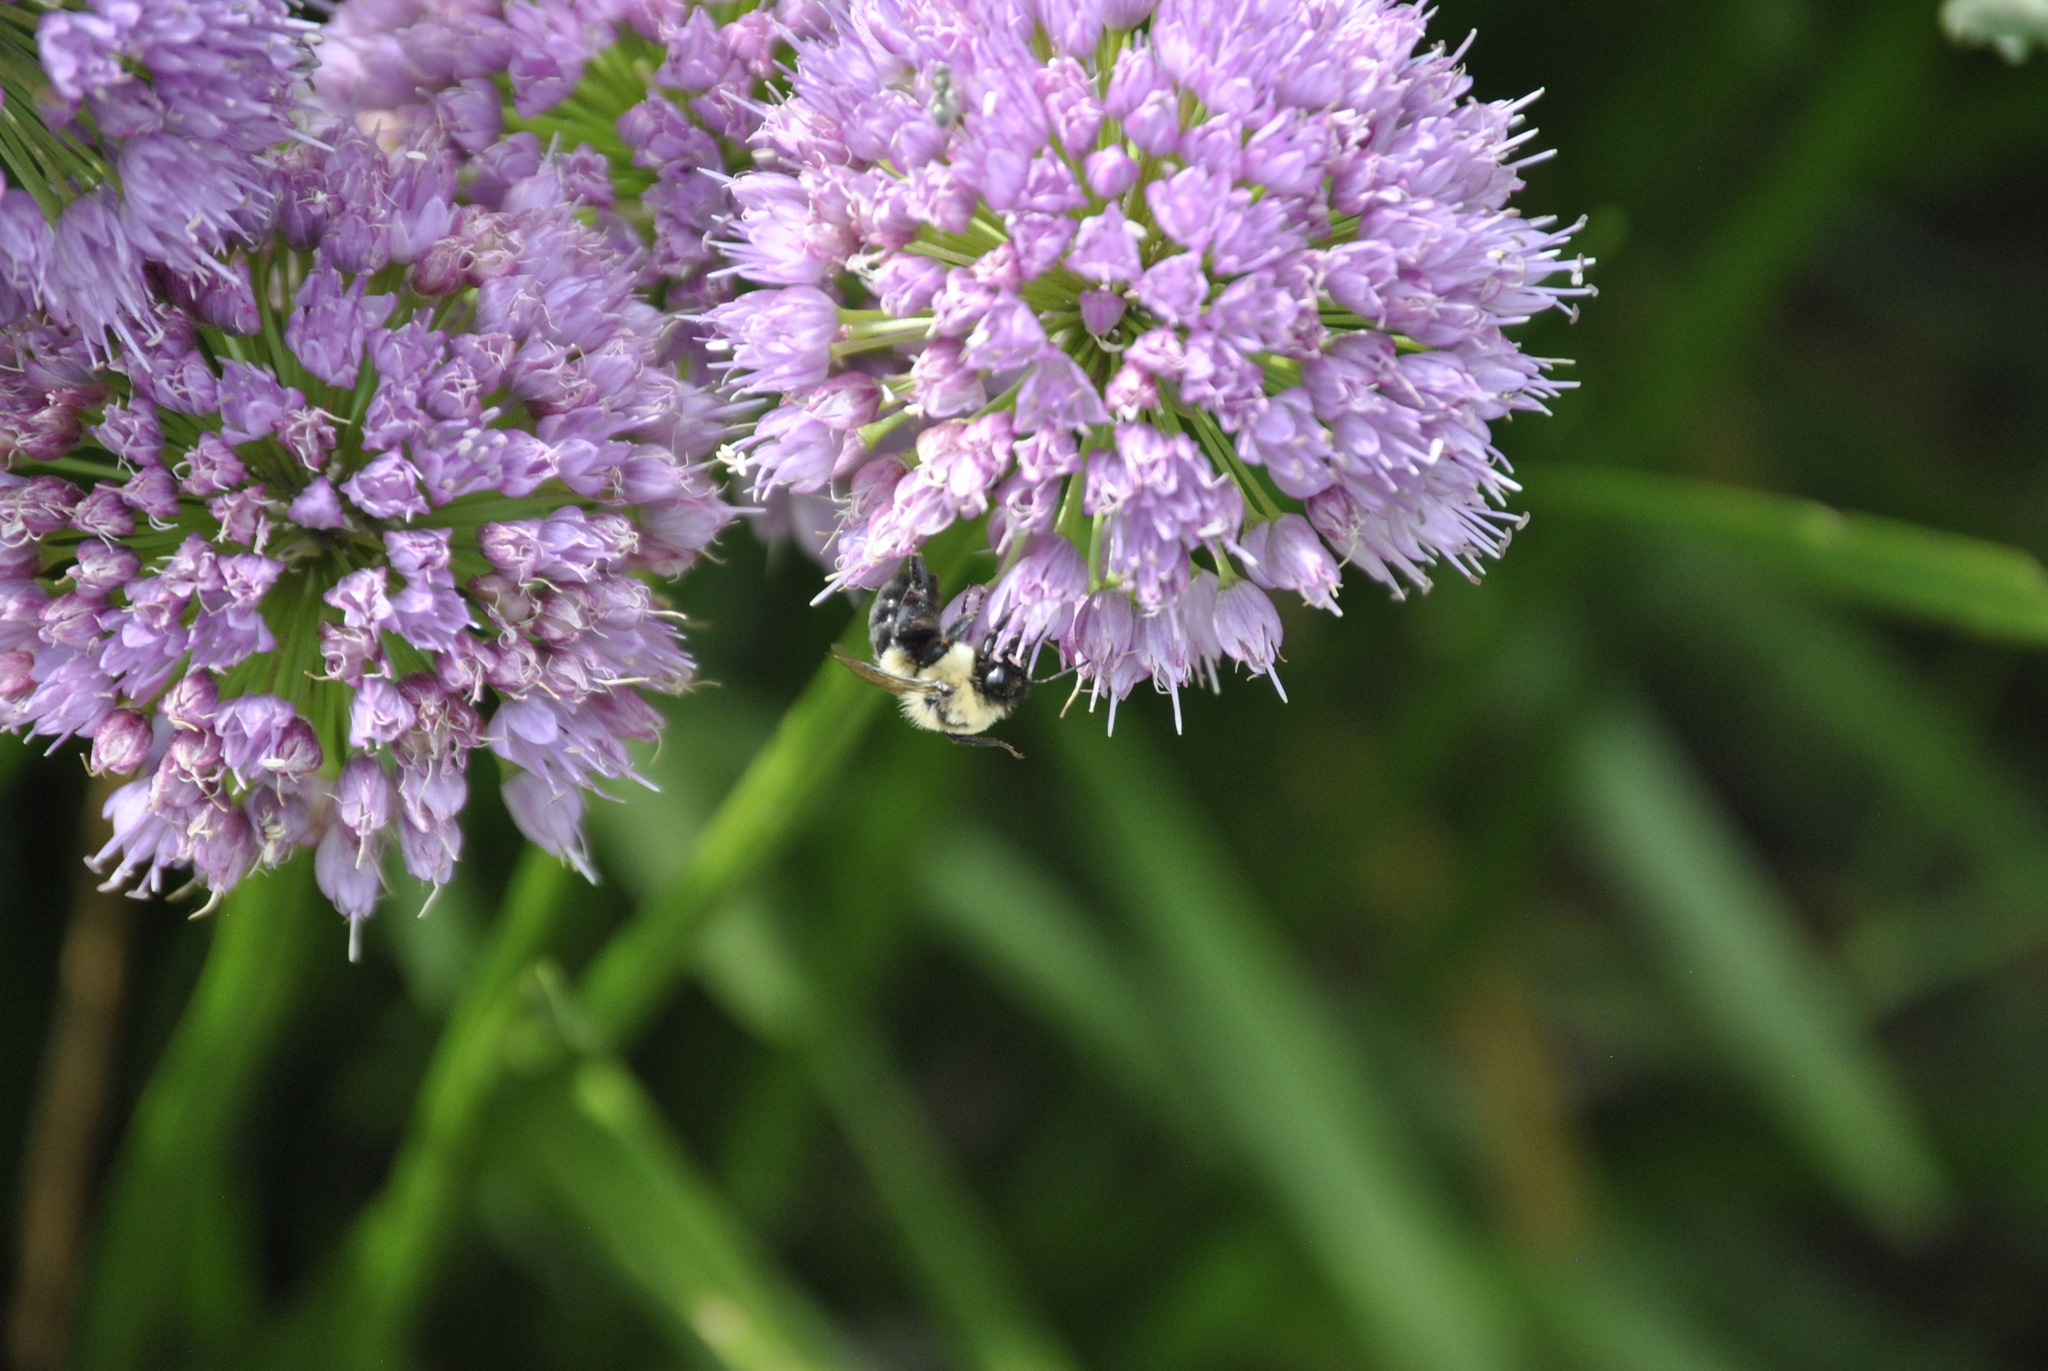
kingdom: Animalia
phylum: Arthropoda
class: Insecta
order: Hymenoptera
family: Apidae
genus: Bombus
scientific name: Bombus impatiens
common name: Common eastern bumble bee
